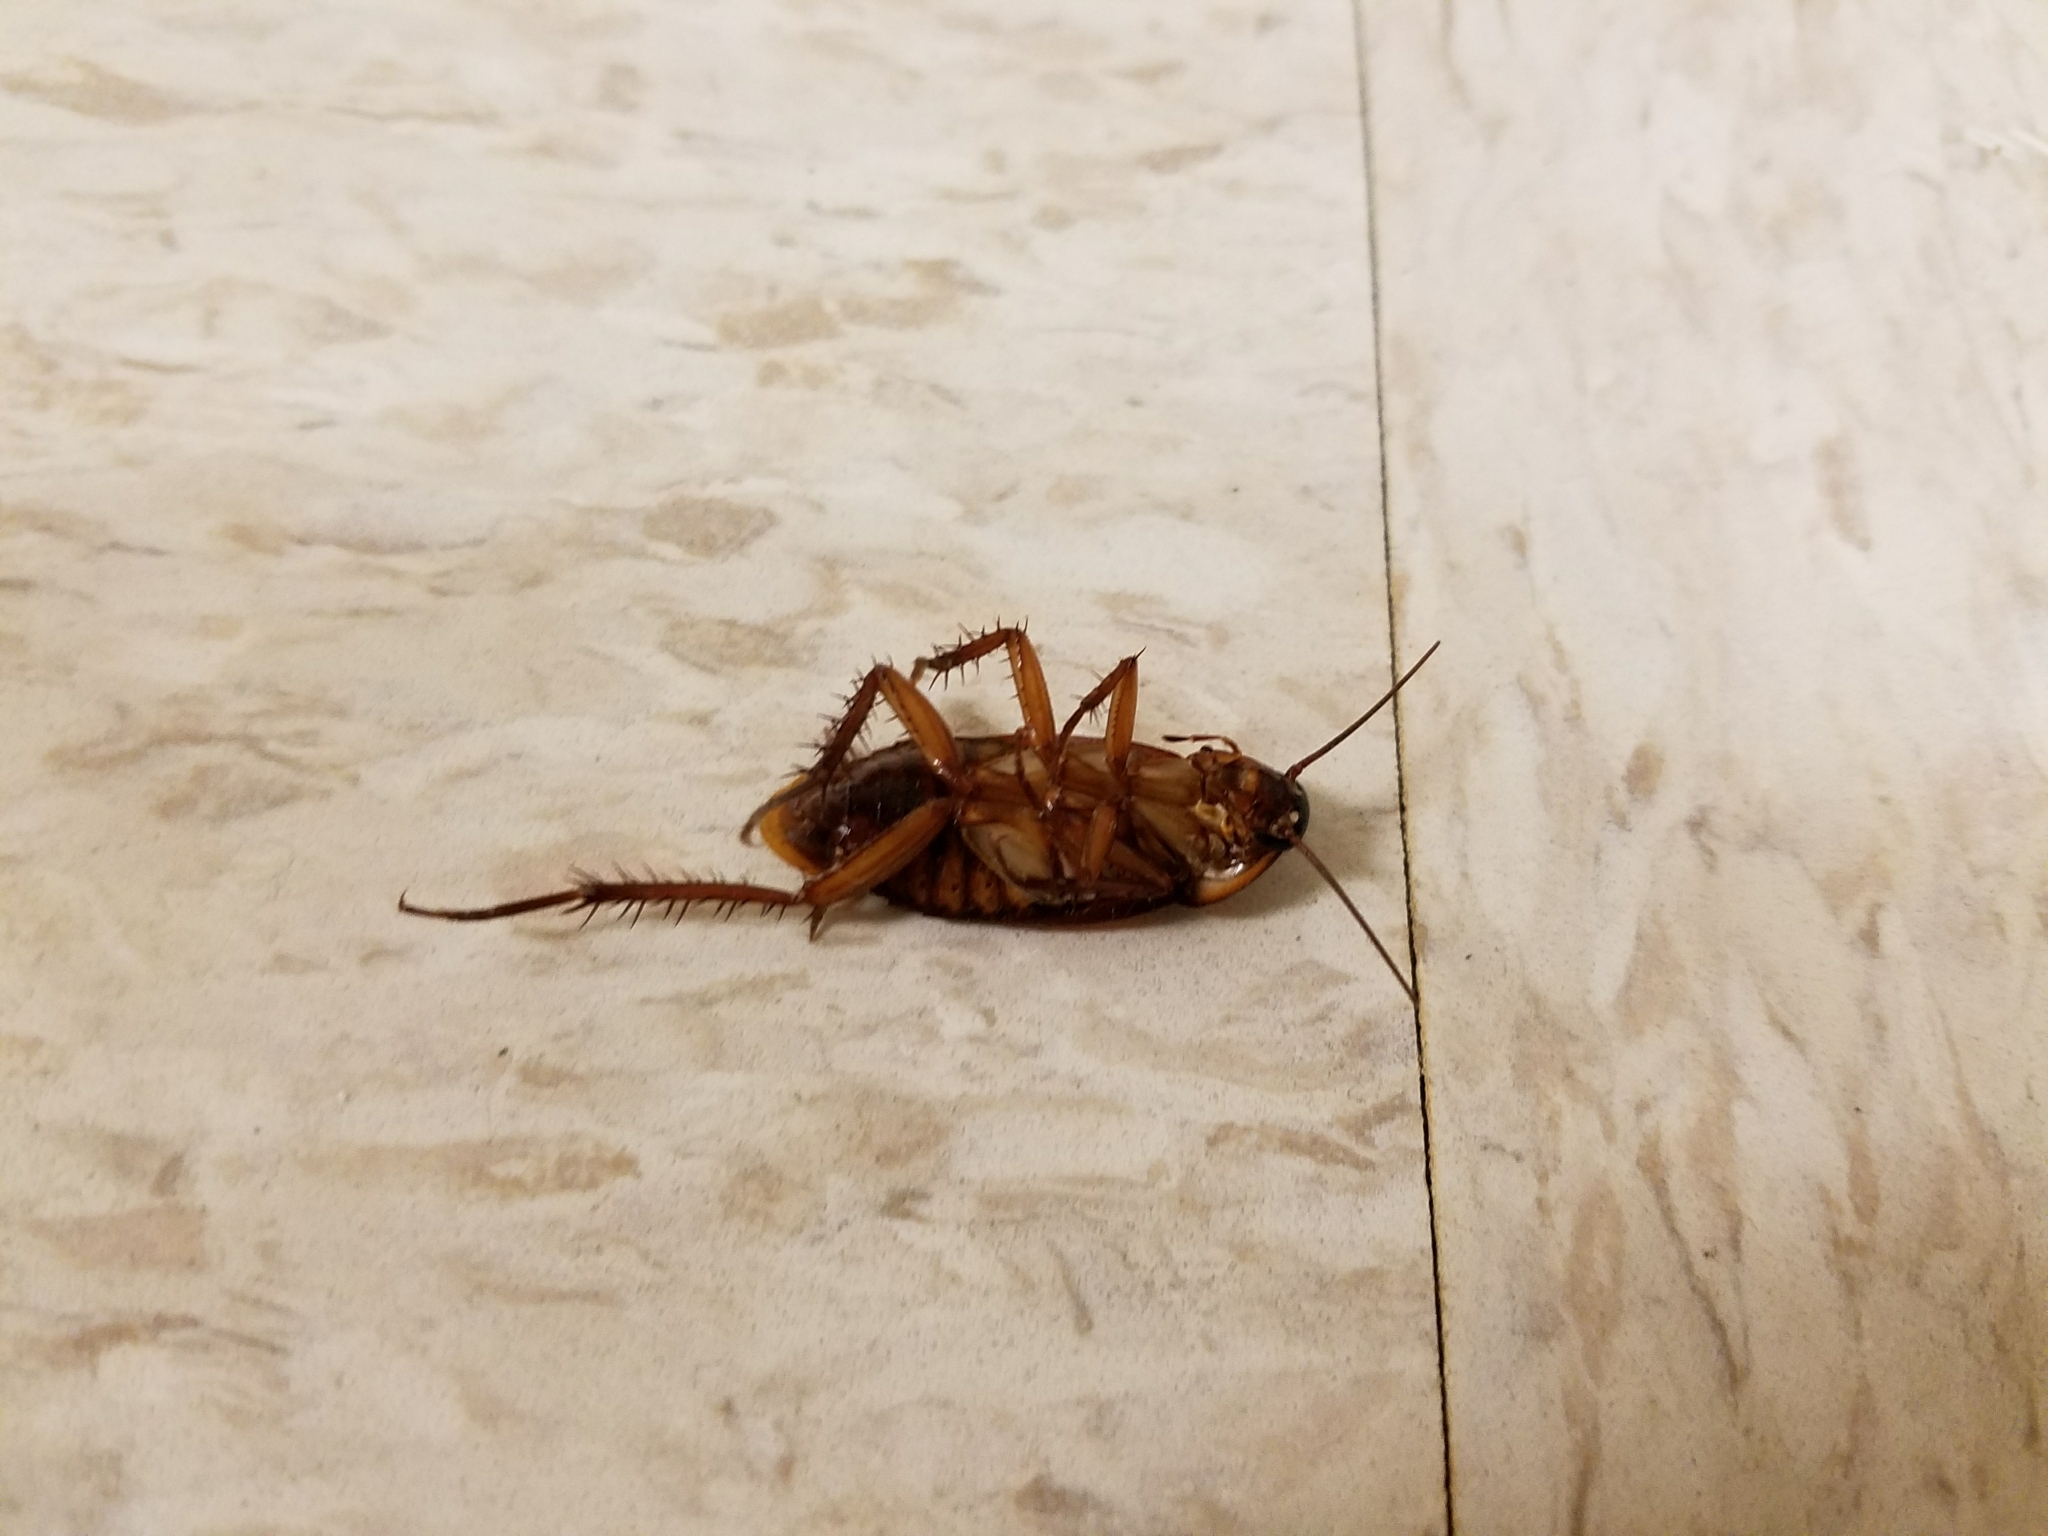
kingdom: Animalia
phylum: Arthropoda
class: Insecta
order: Blattodea
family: Blattidae
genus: Periplaneta
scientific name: Periplaneta americana
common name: American cockroach
